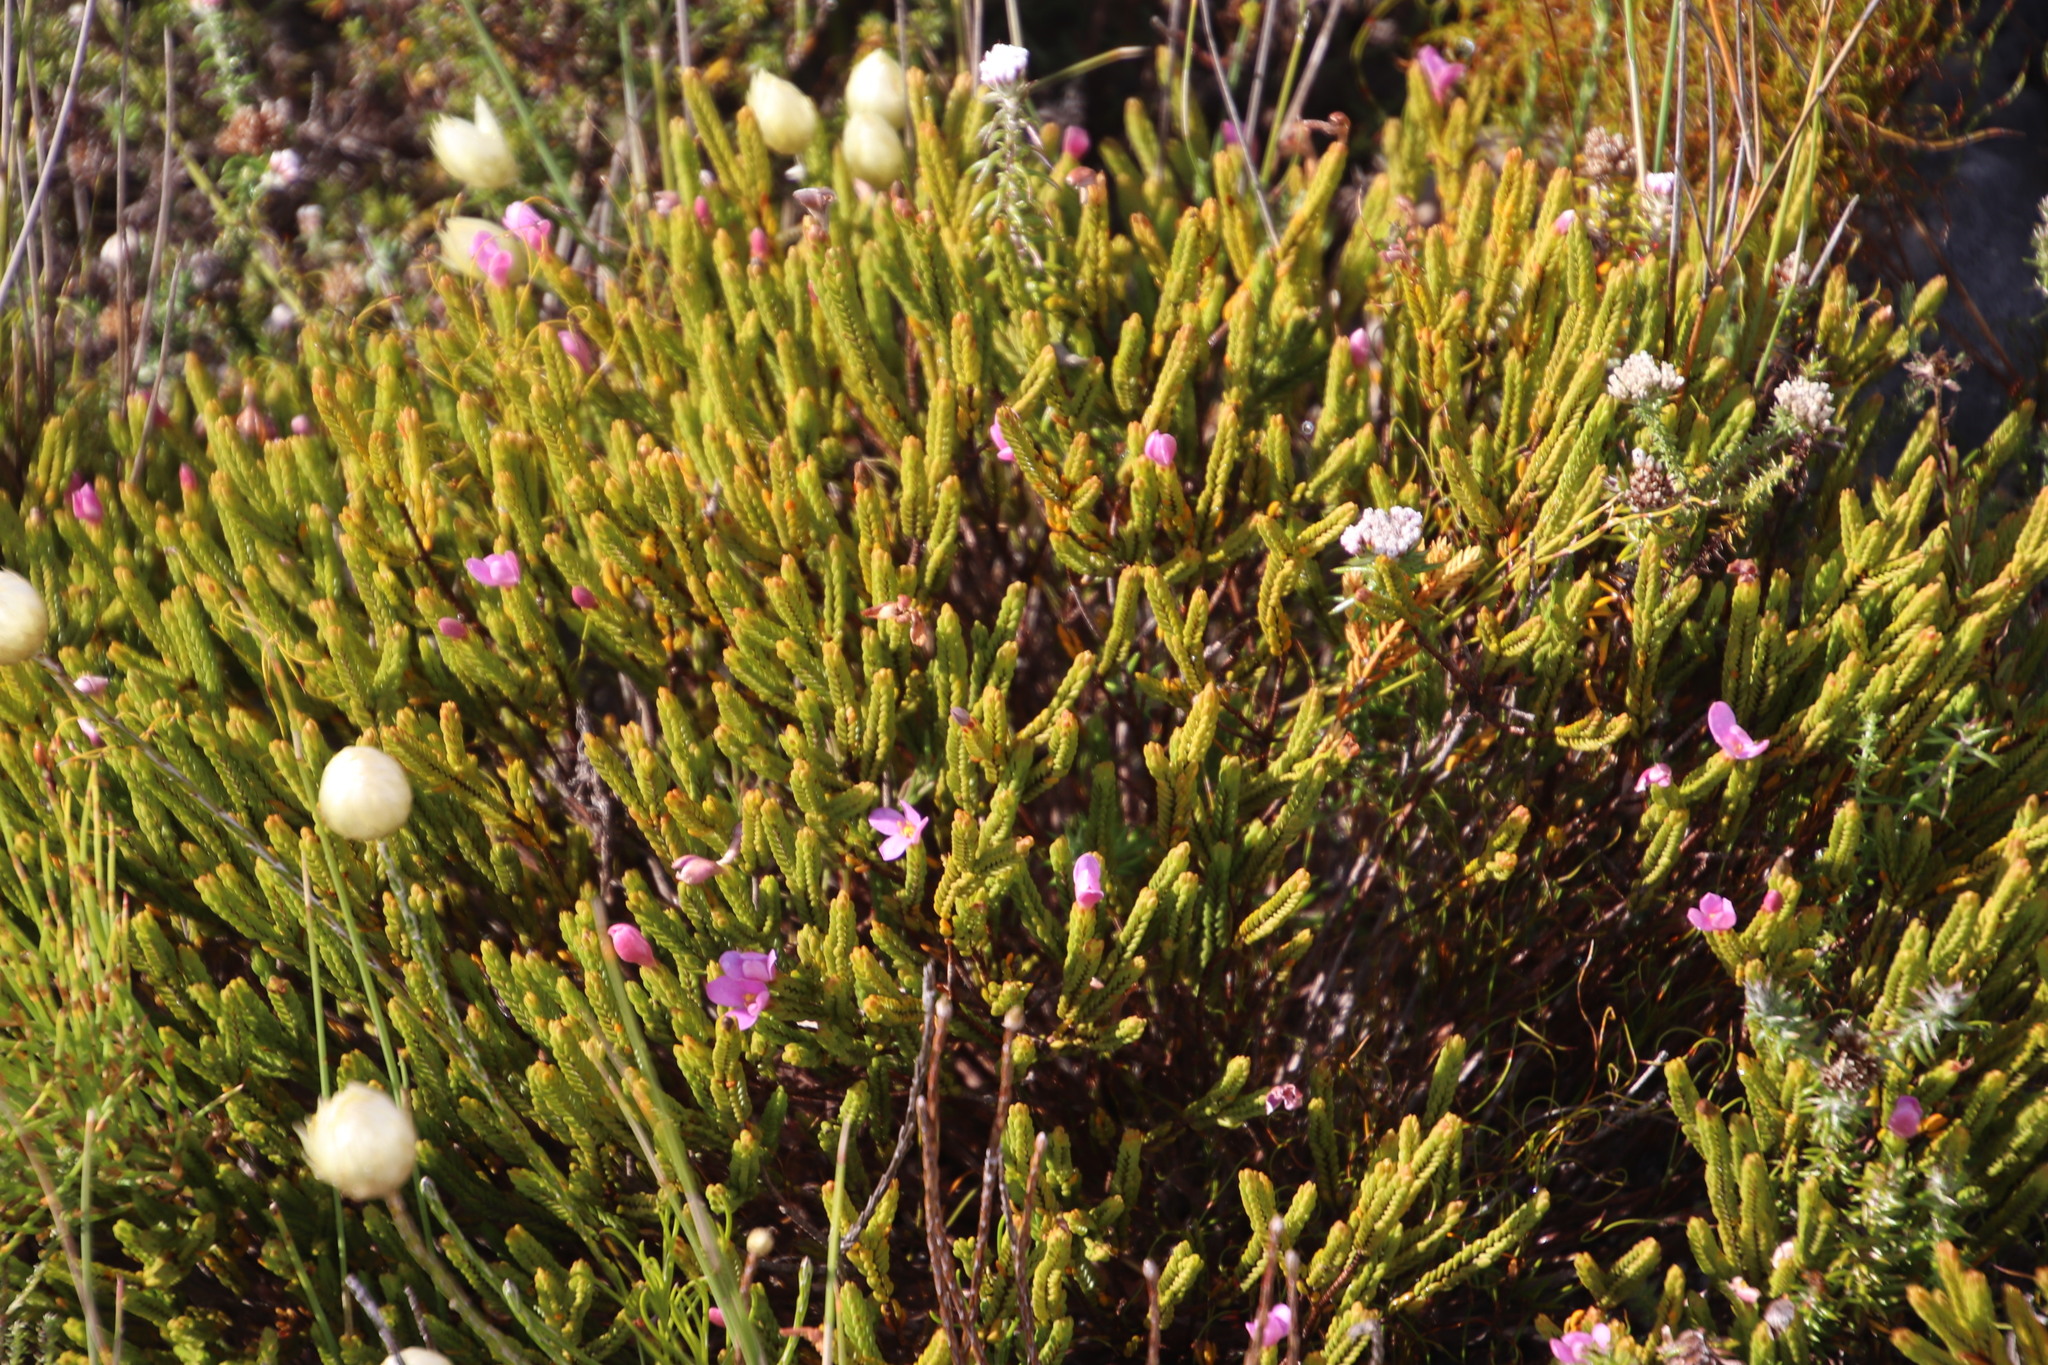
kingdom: Plantae
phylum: Tracheophyta
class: Magnoliopsida
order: Malvales
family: Thymelaeaceae
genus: Lachnaea
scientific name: Lachnaea grandiflora
